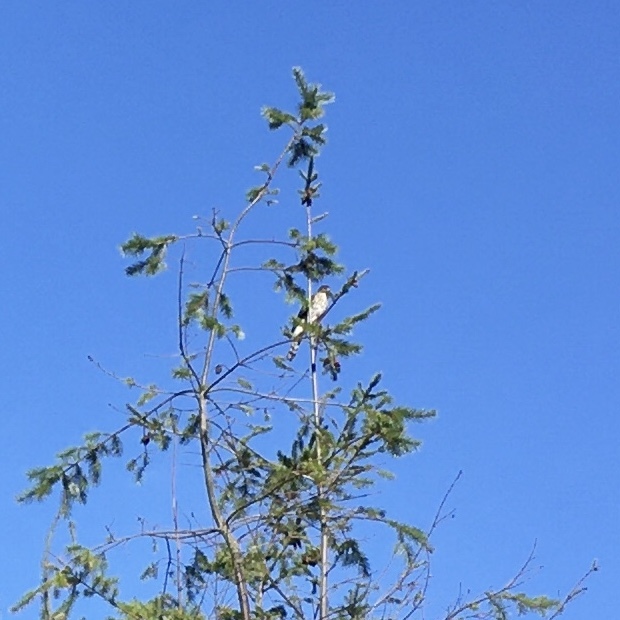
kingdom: Animalia
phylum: Chordata
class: Aves
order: Accipitriformes
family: Accipitridae
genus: Accipiter
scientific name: Accipiter
